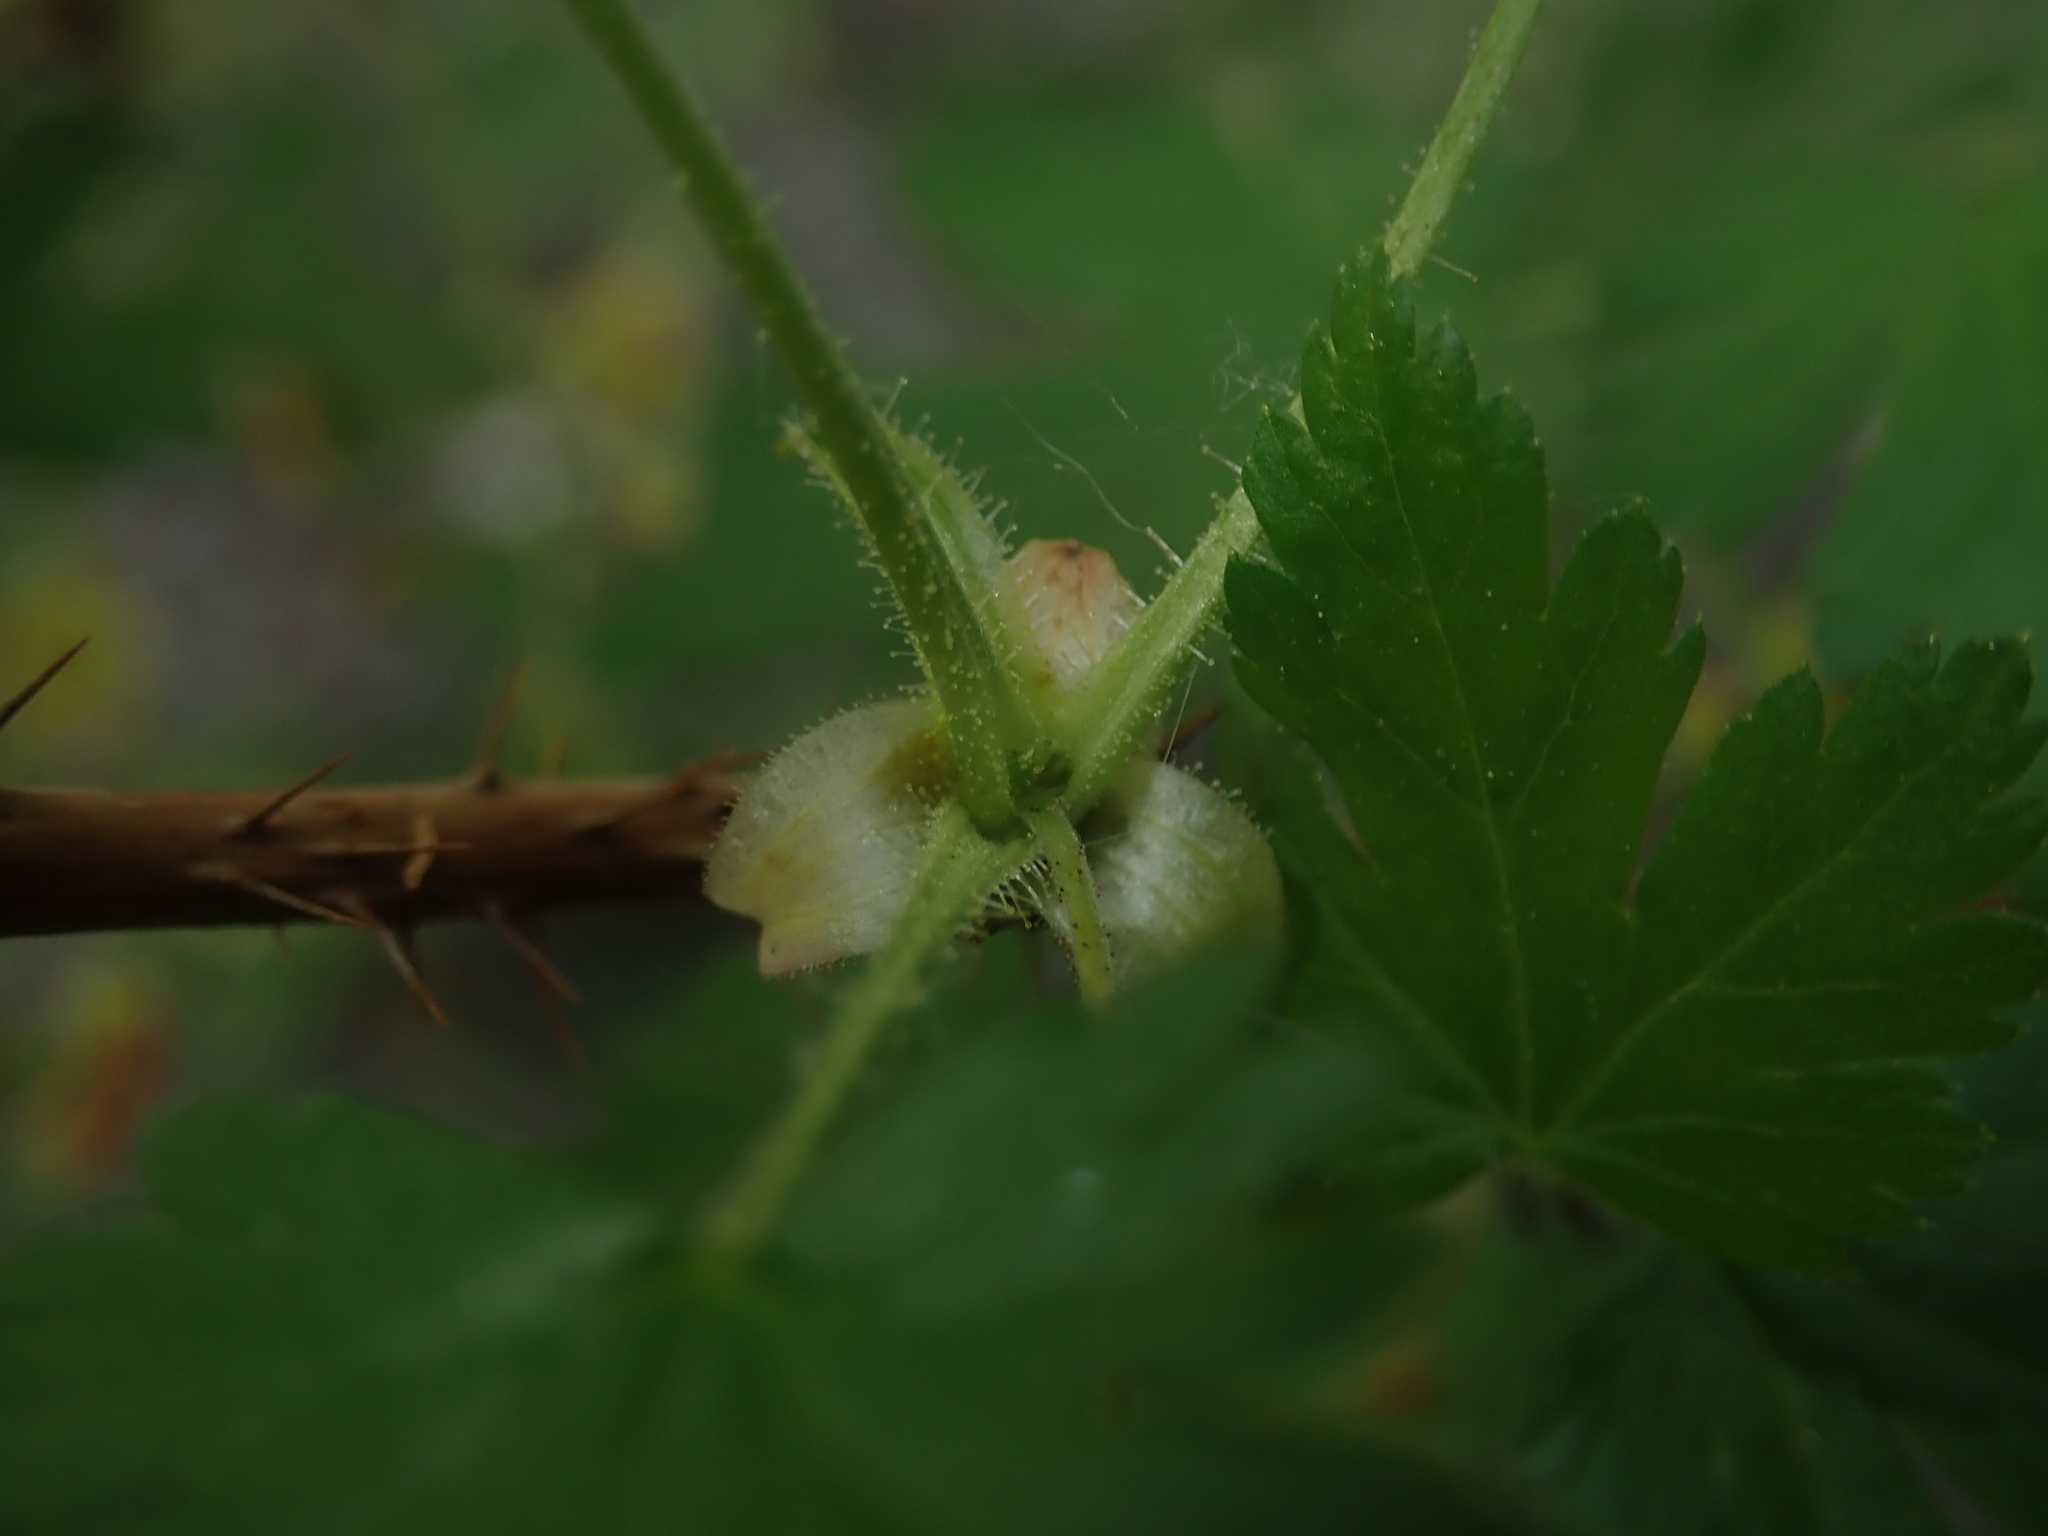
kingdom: Plantae
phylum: Tracheophyta
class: Magnoliopsida
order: Saxifragales
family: Grossulariaceae
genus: Ribes
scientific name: Ribes lacustre
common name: Black gooseberry
